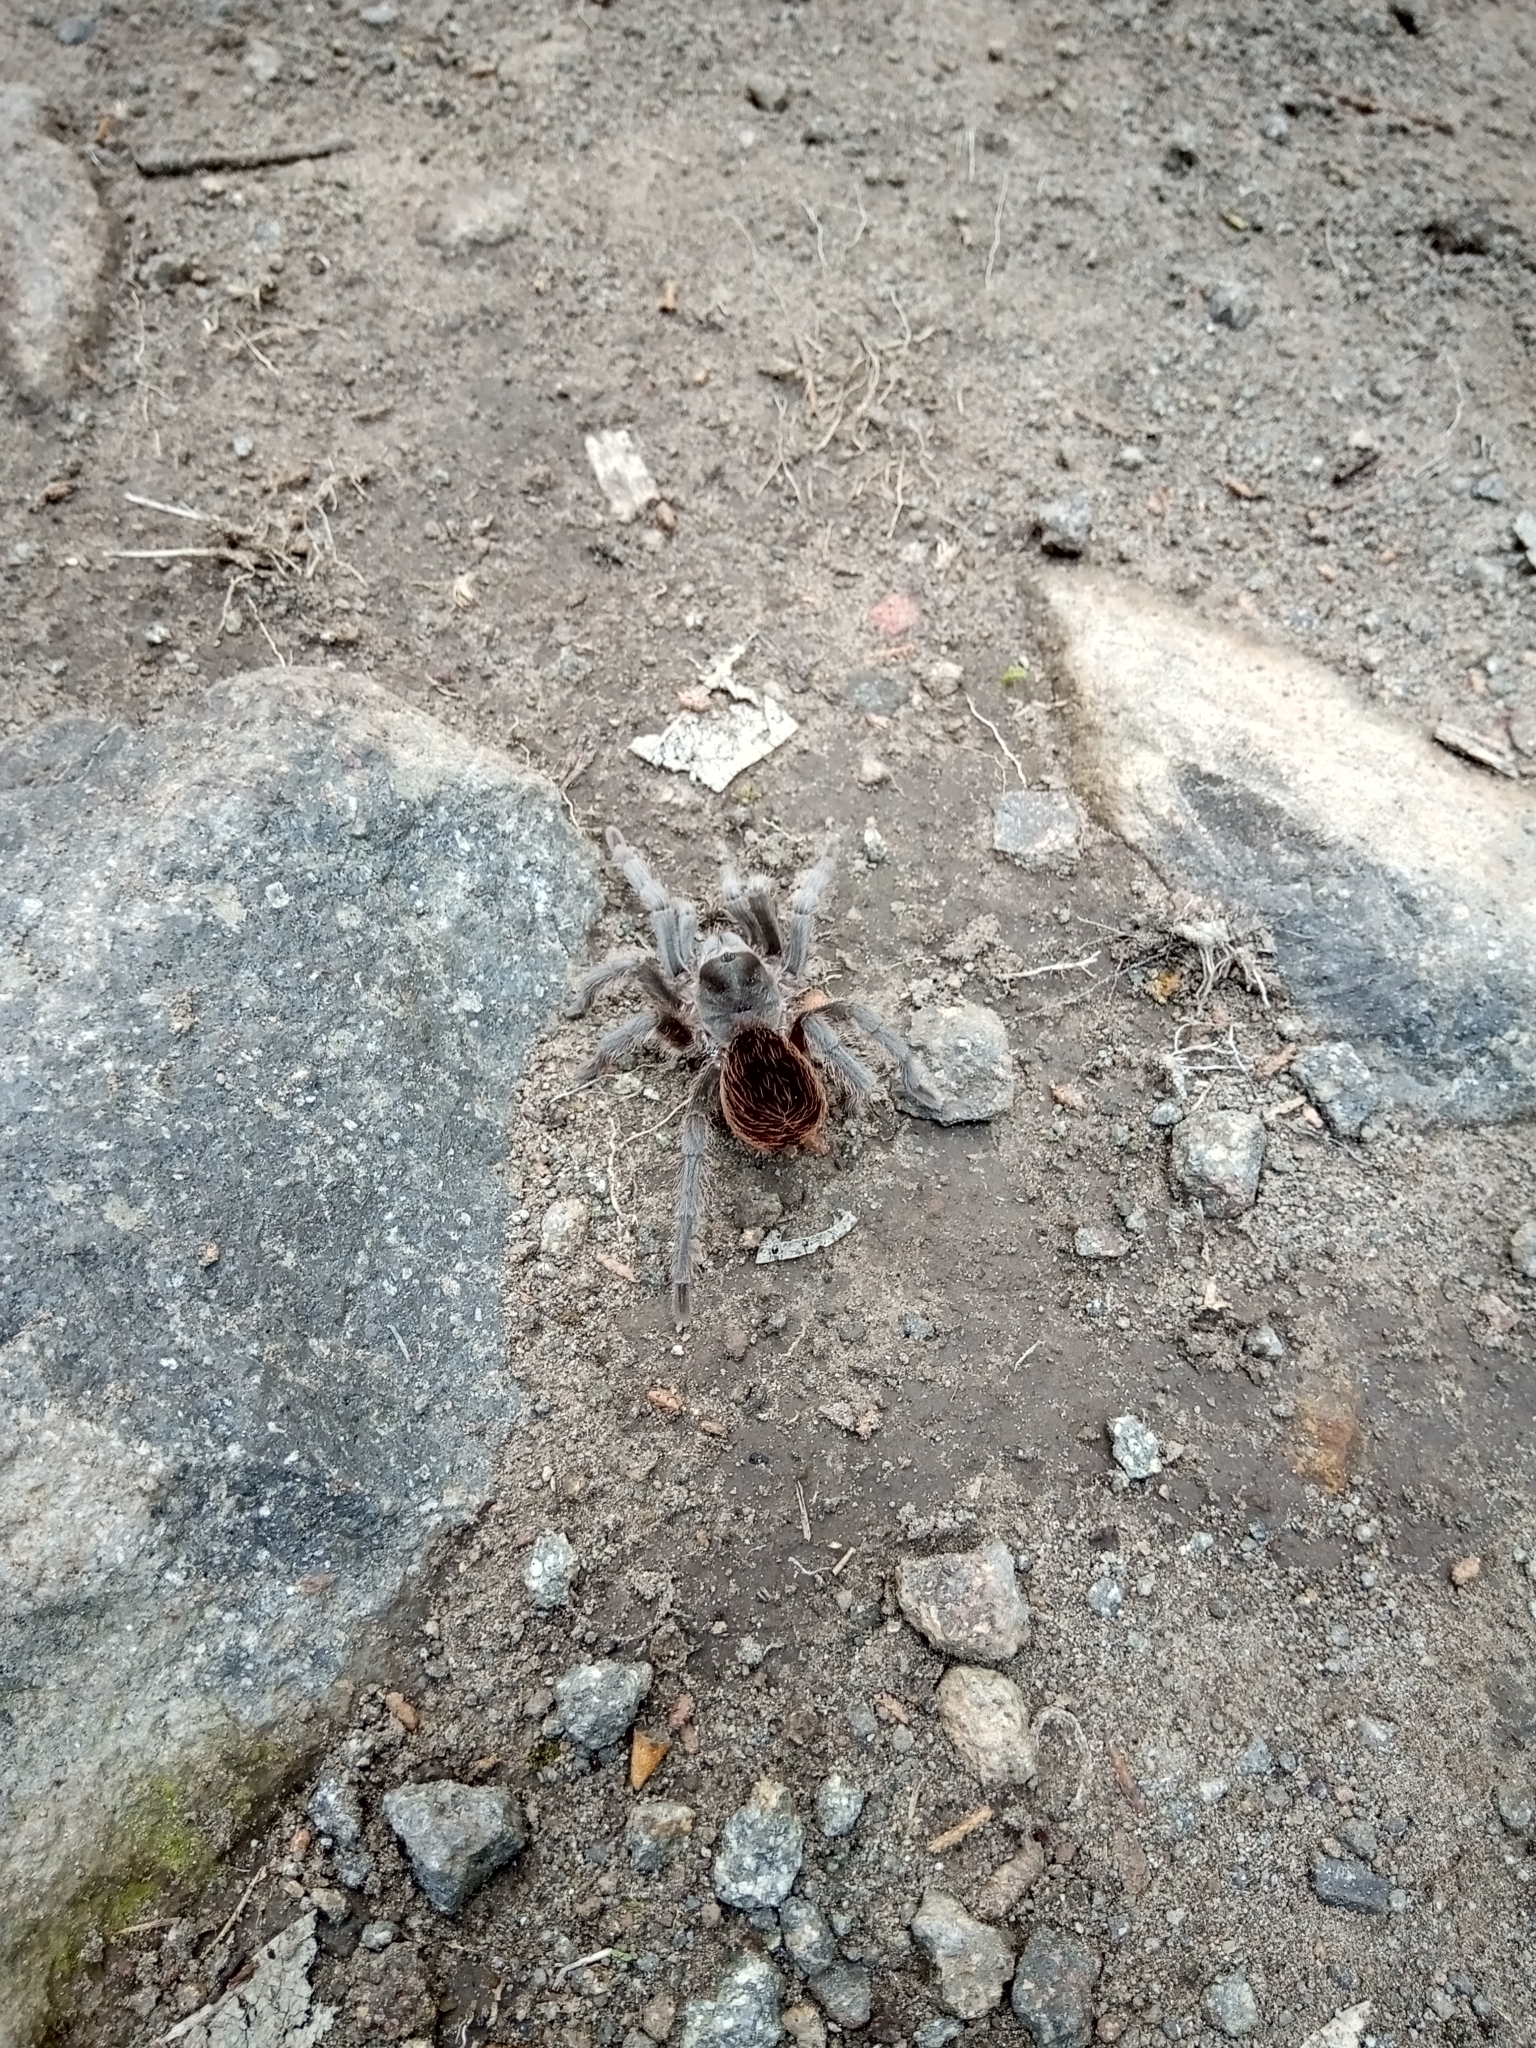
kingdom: Animalia
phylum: Arthropoda
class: Arachnida
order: Araneae
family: Theraphosidae
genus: Aphonopelma
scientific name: Aphonopelma anitahoffmannae
